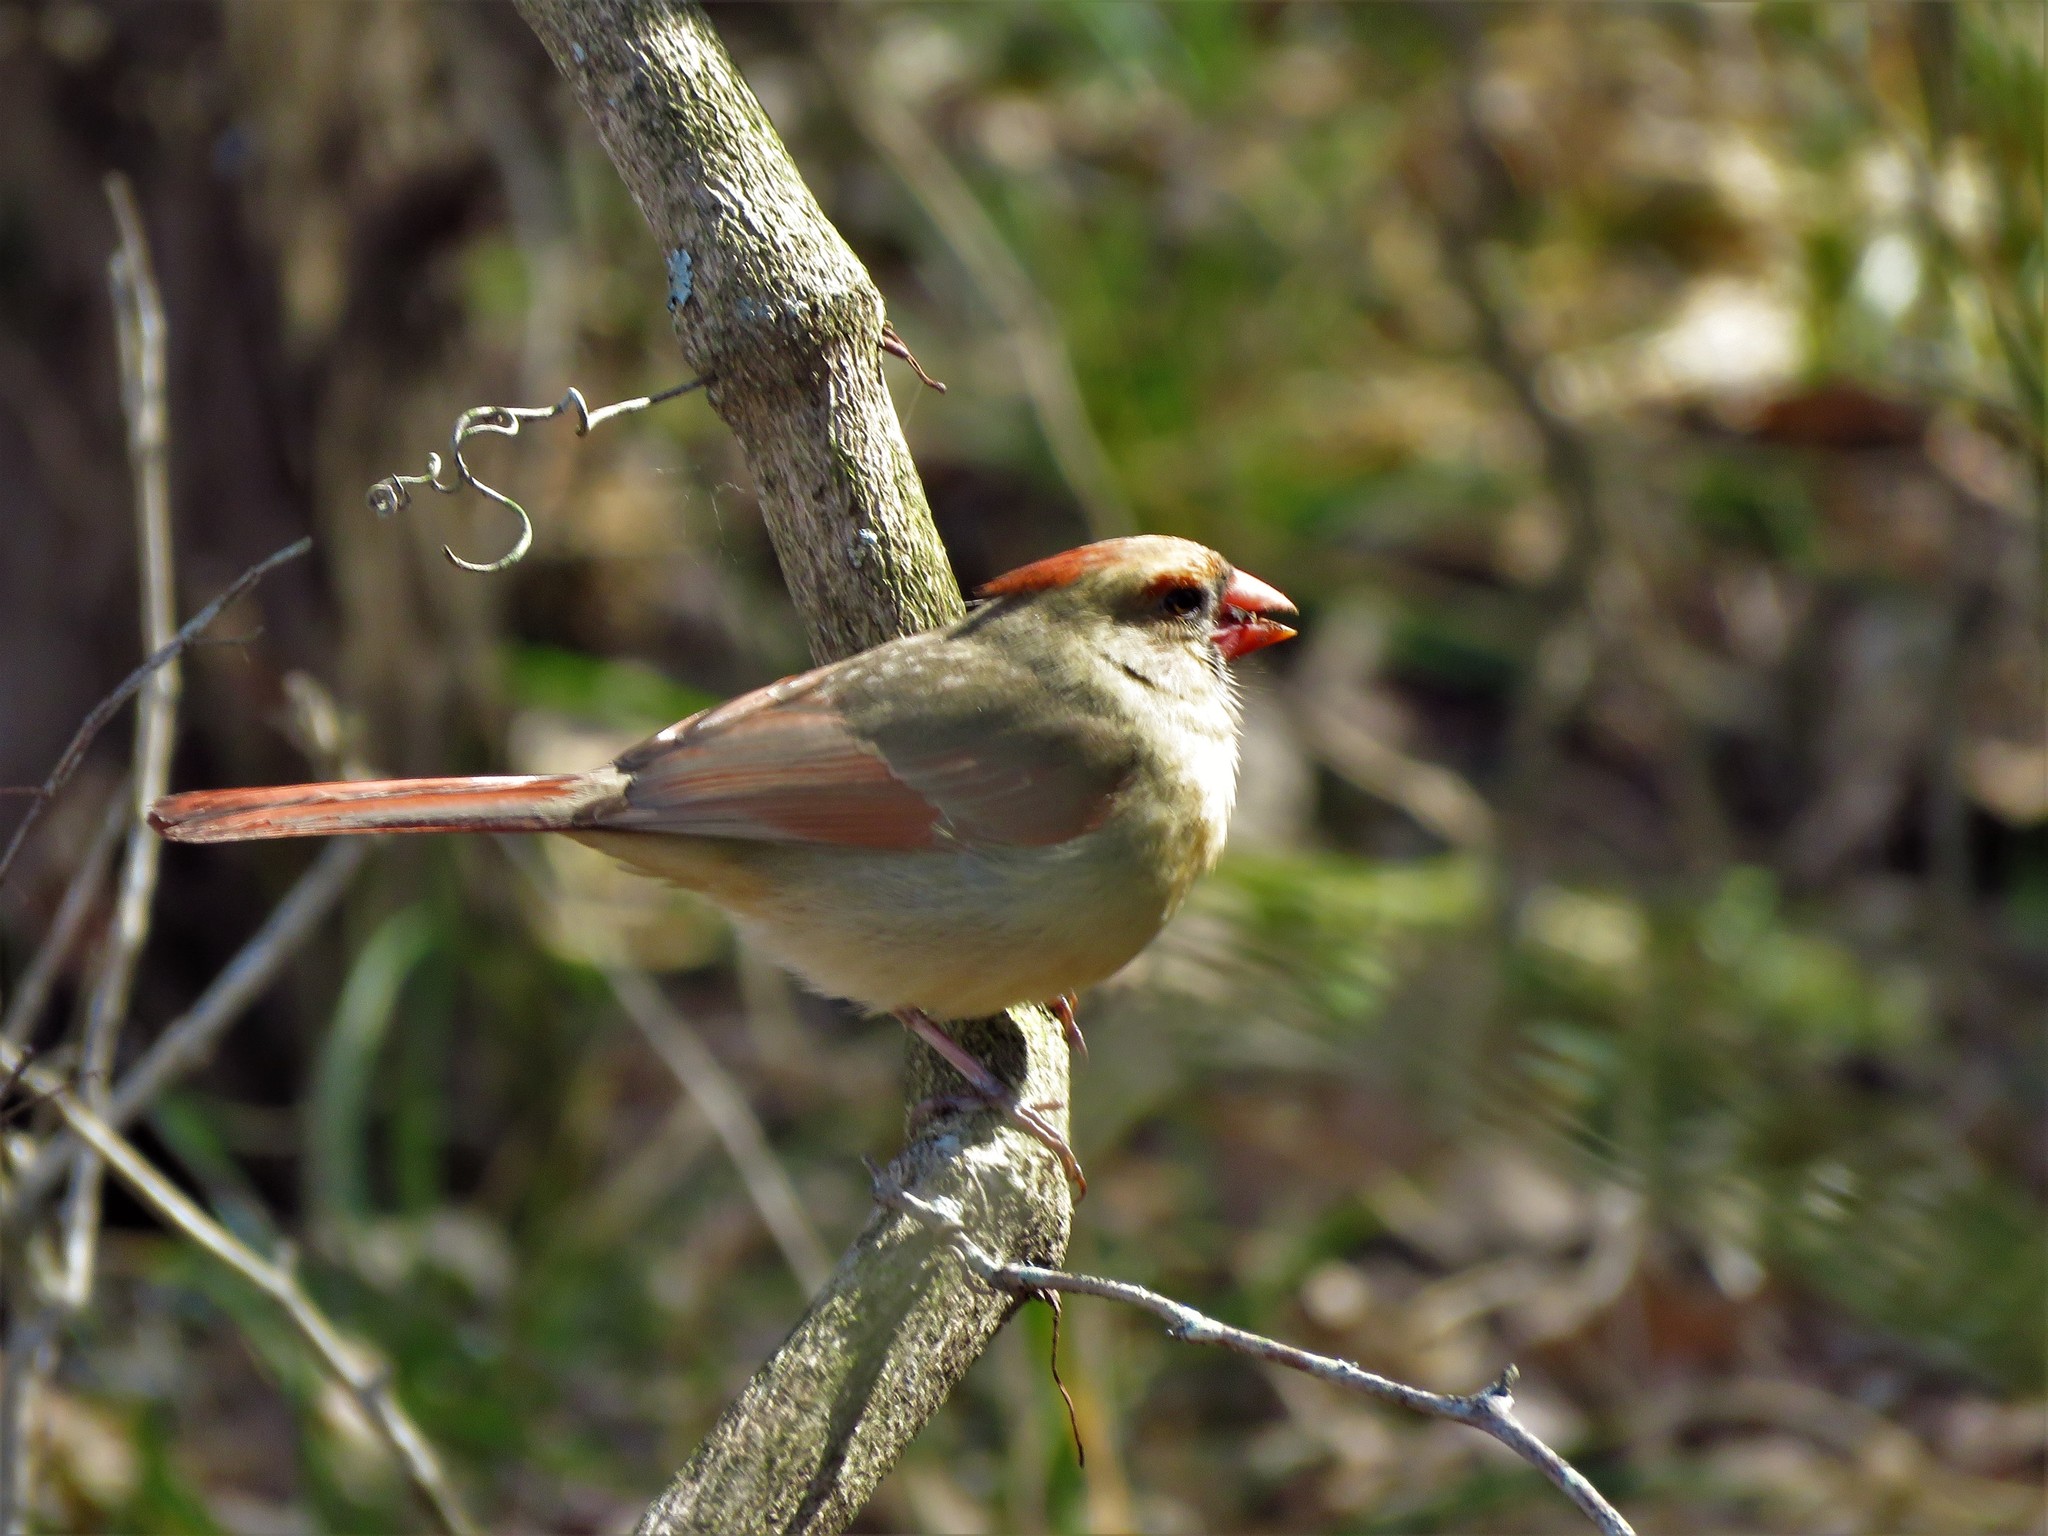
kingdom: Animalia
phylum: Chordata
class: Aves
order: Passeriformes
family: Cardinalidae
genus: Cardinalis
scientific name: Cardinalis cardinalis
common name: Northern cardinal
